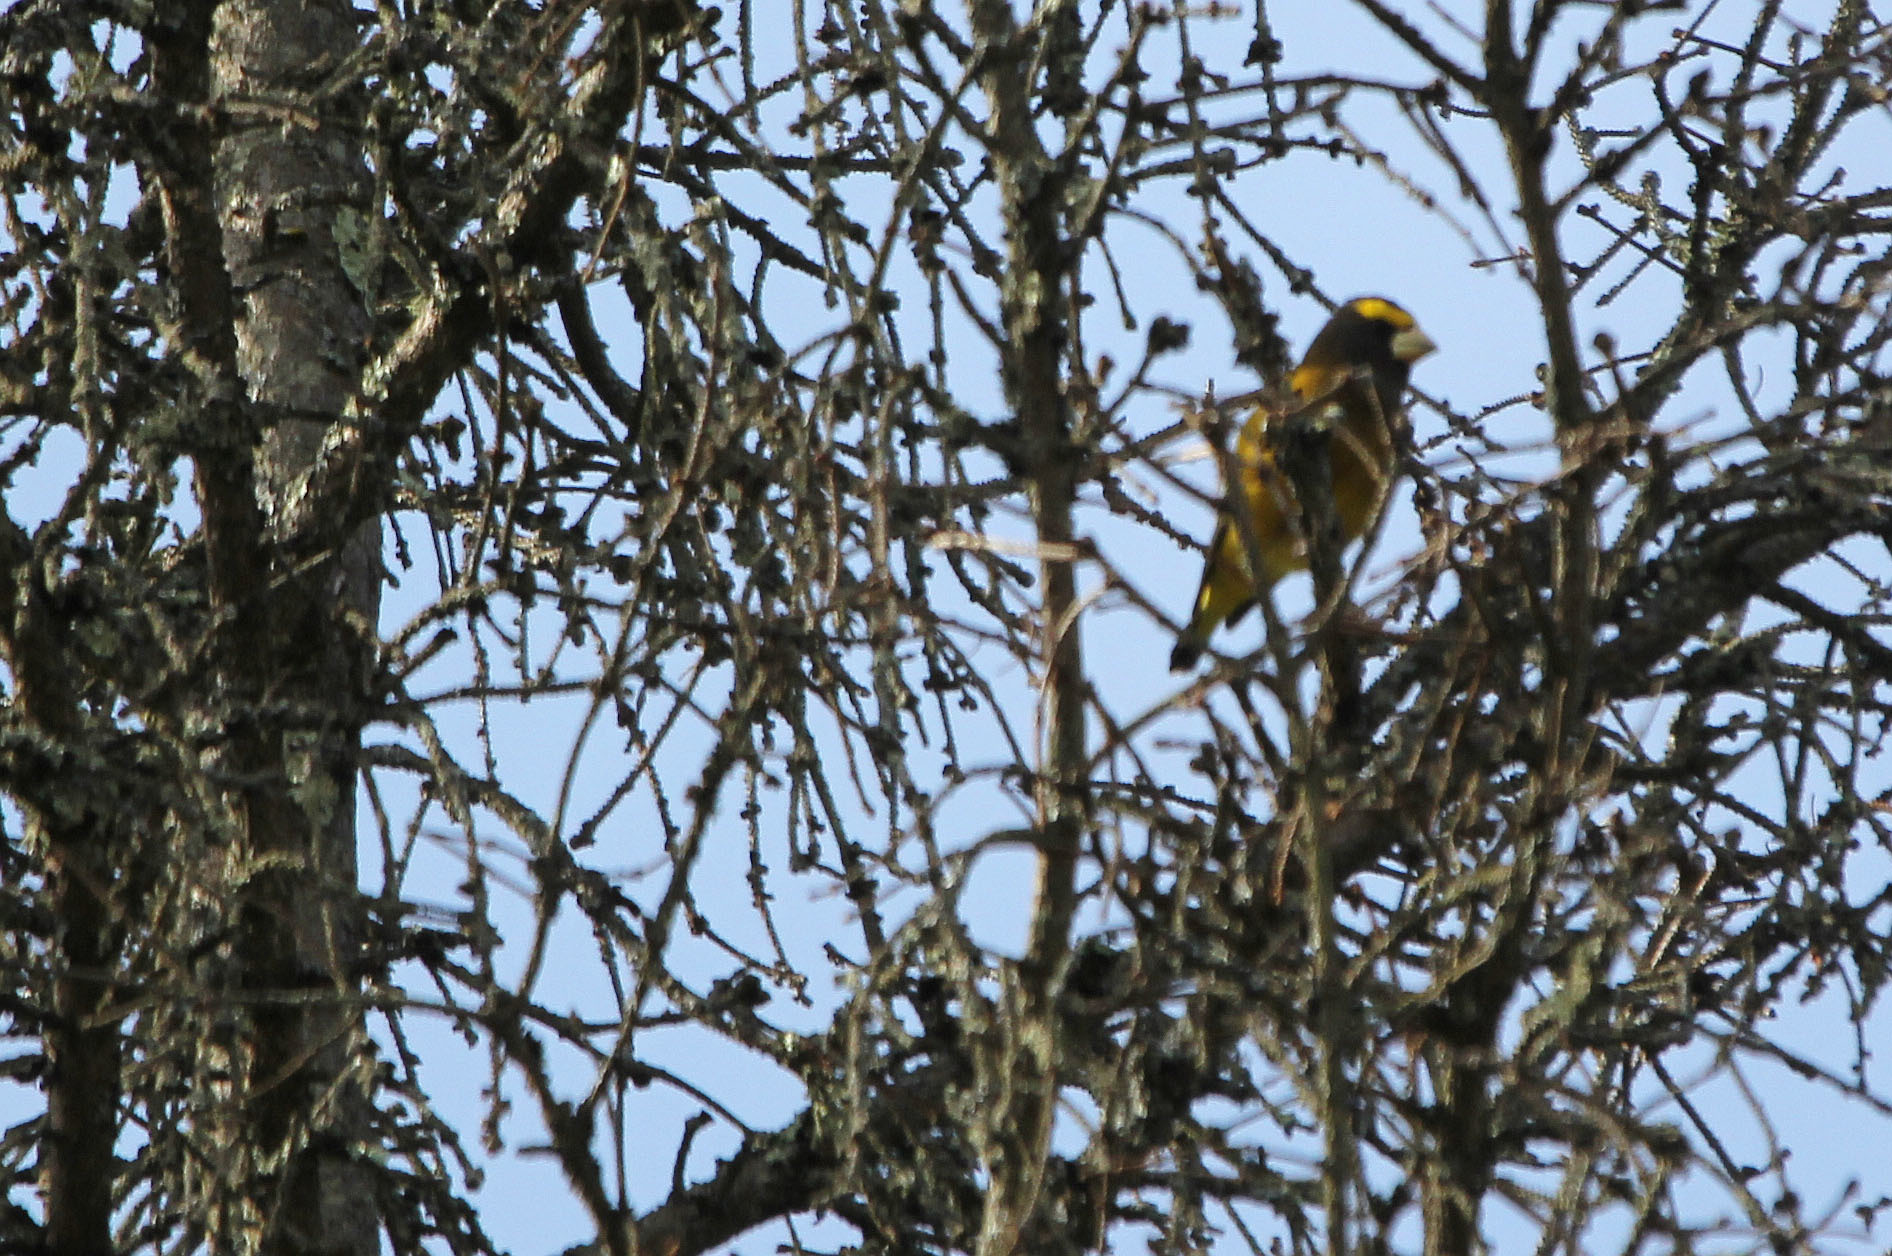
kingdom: Animalia
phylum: Chordata
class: Aves
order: Passeriformes
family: Fringillidae
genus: Hesperiphona
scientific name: Hesperiphona vespertina
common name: Evening grosbeak
